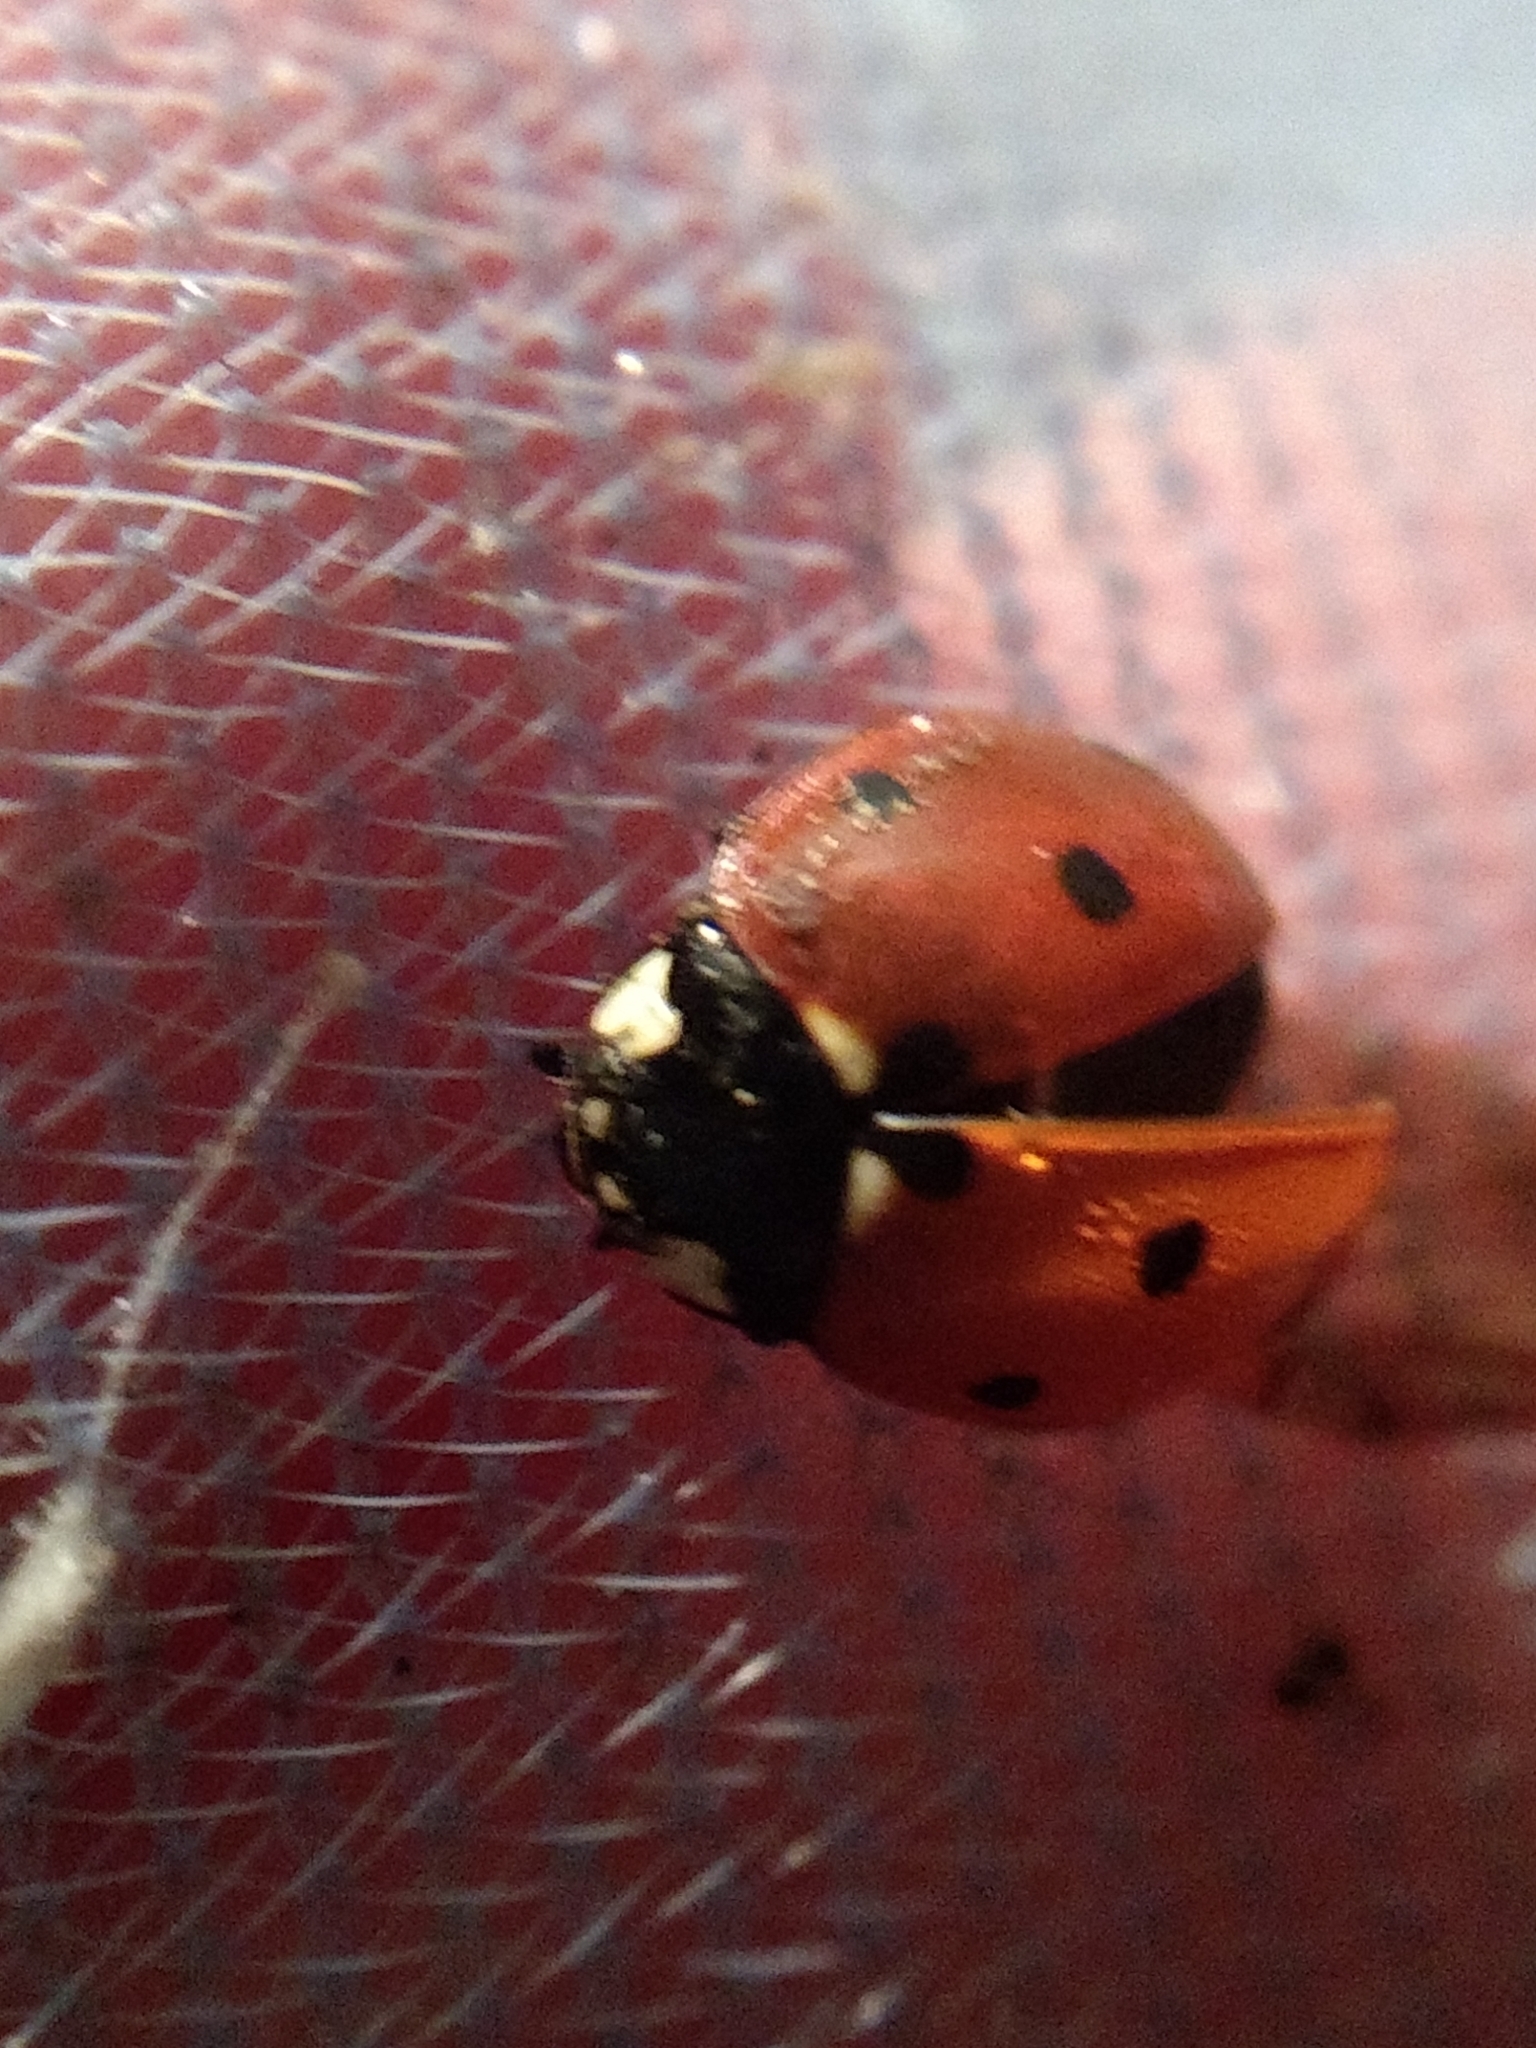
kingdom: Animalia
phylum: Arthropoda
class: Insecta
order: Coleoptera
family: Coccinellidae
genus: Coccinella
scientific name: Coccinella septempunctata
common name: Sevenspotted lady beetle
